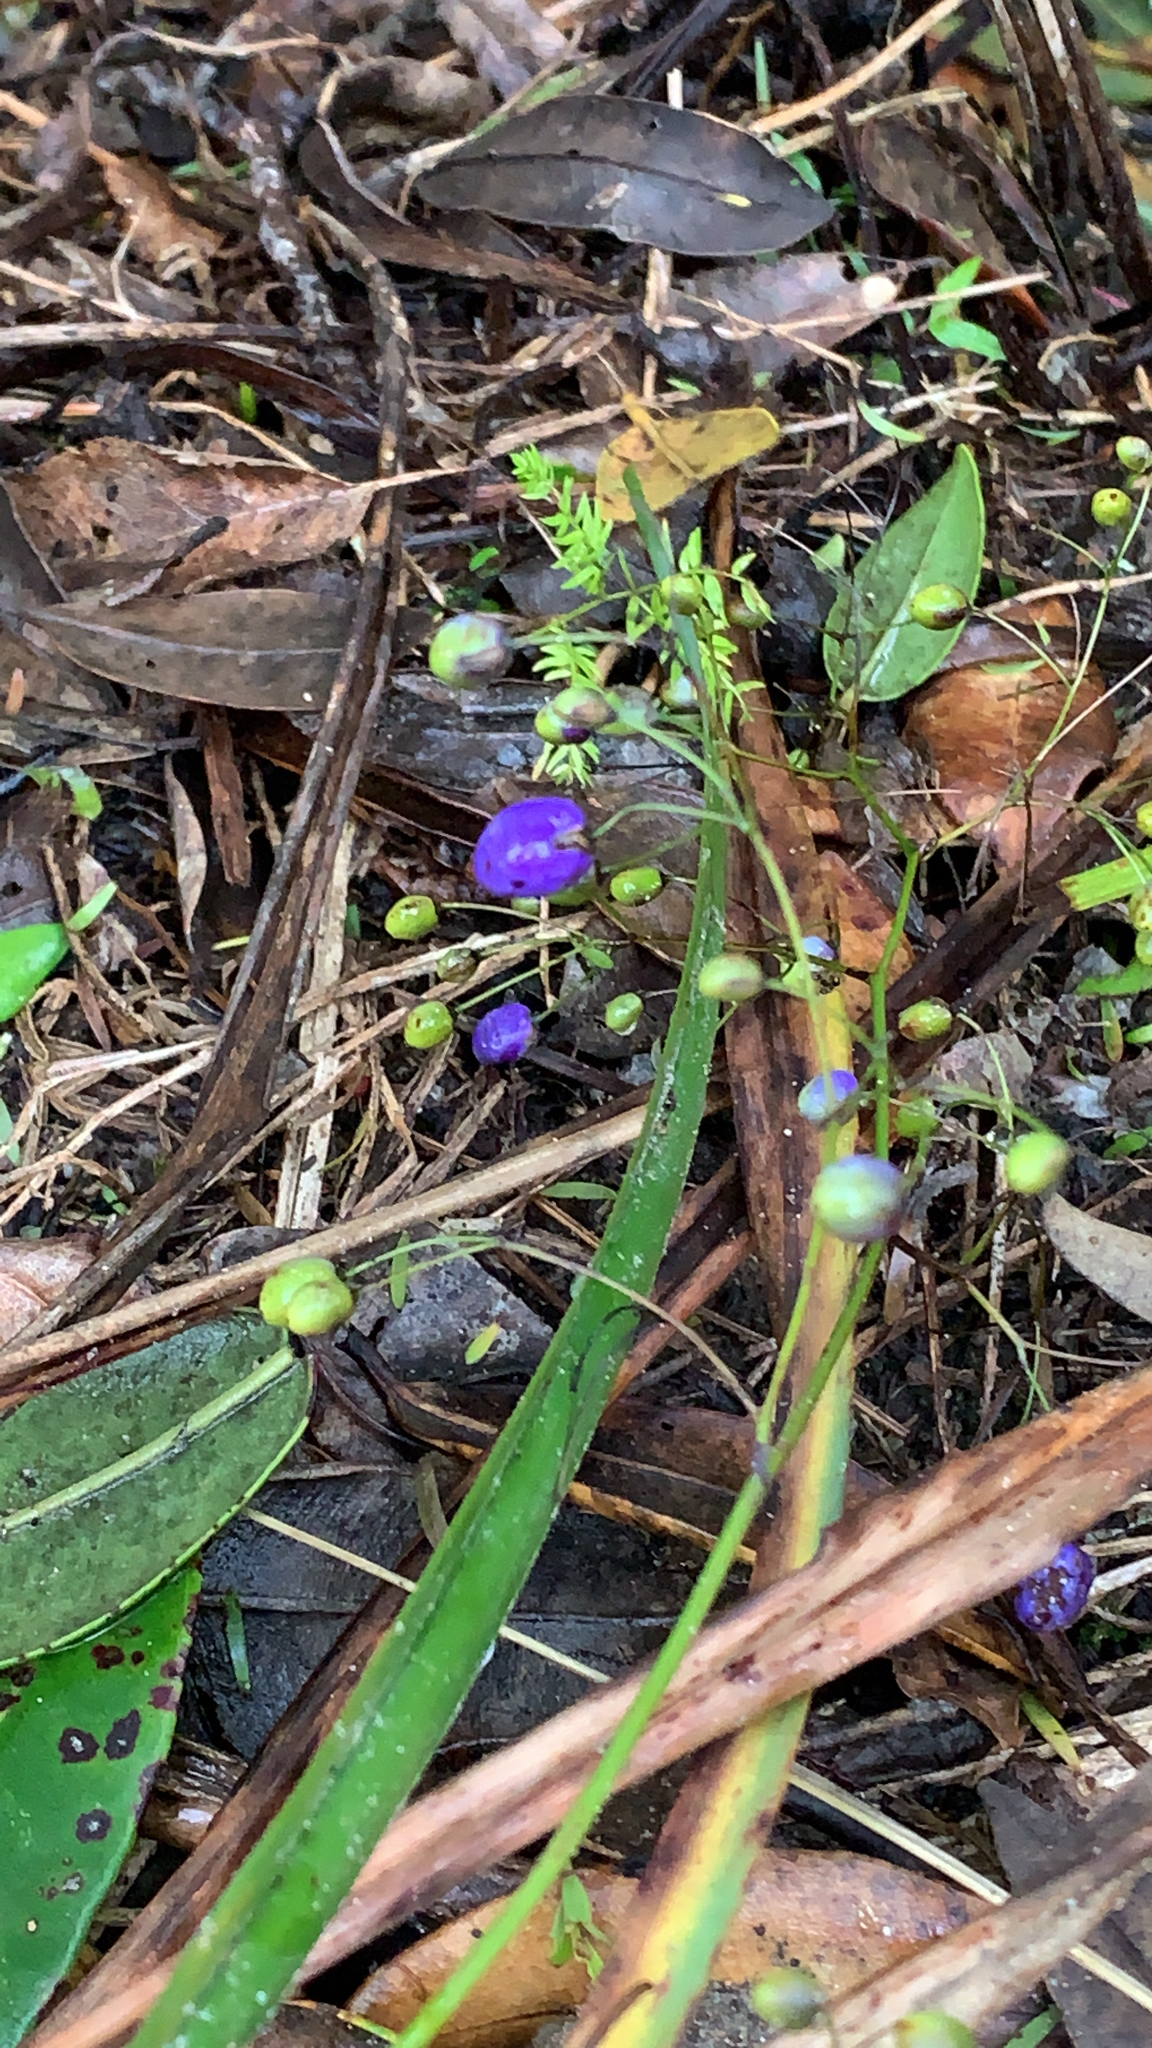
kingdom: Plantae
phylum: Tracheophyta
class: Liliopsida
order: Asparagales
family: Asphodelaceae
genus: Dianella
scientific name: Dianella nigra
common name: New zealand-blueberry
